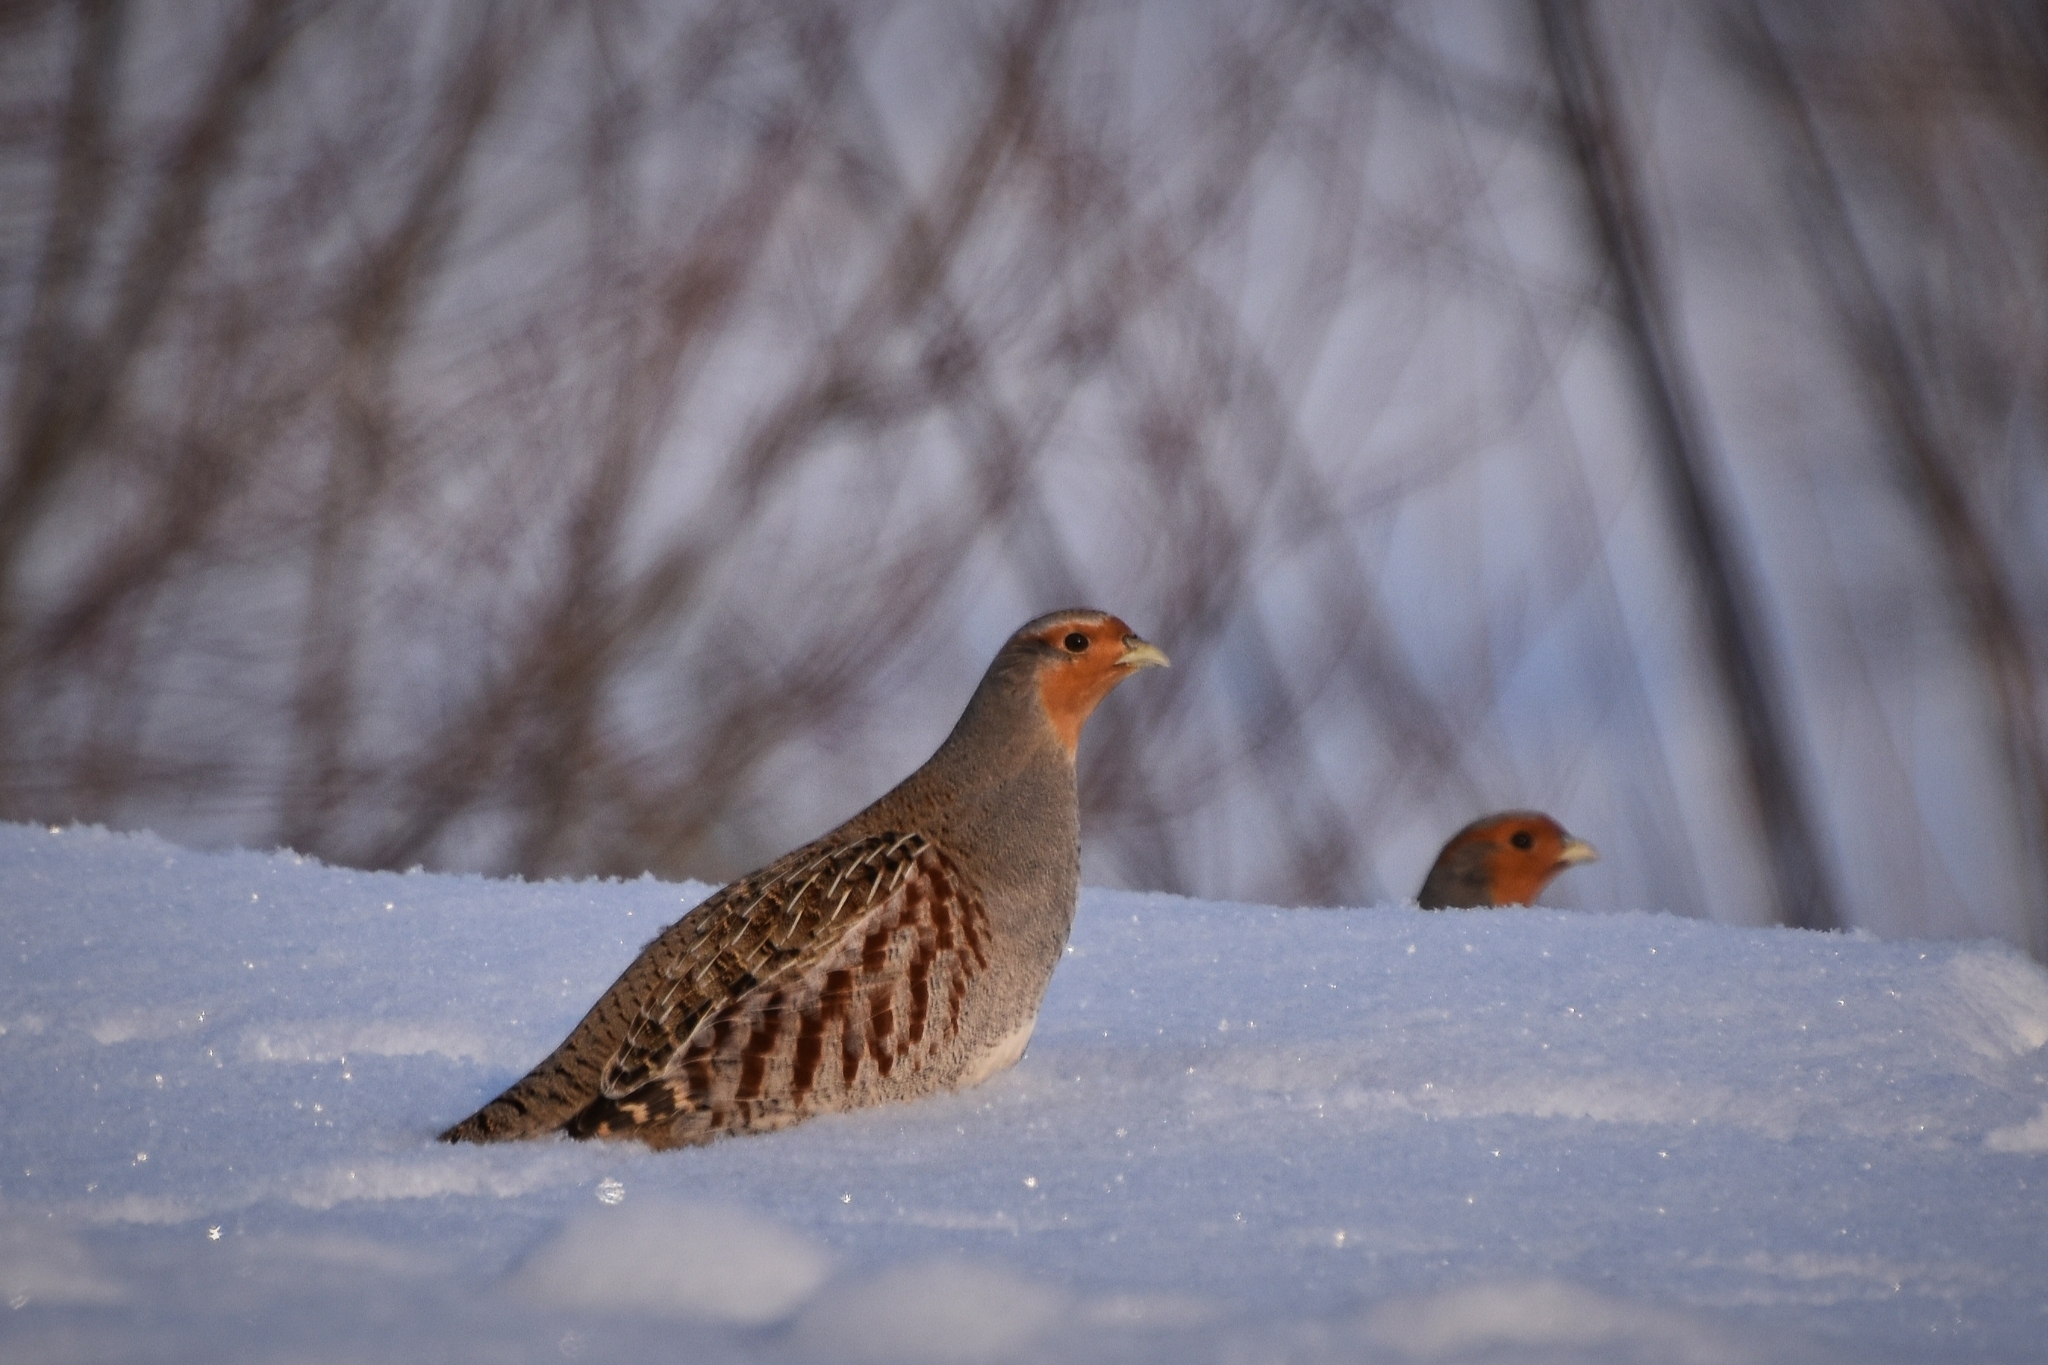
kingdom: Animalia
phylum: Chordata
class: Aves
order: Galliformes
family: Phasianidae
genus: Perdix
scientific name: Perdix perdix
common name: Grey partridge
